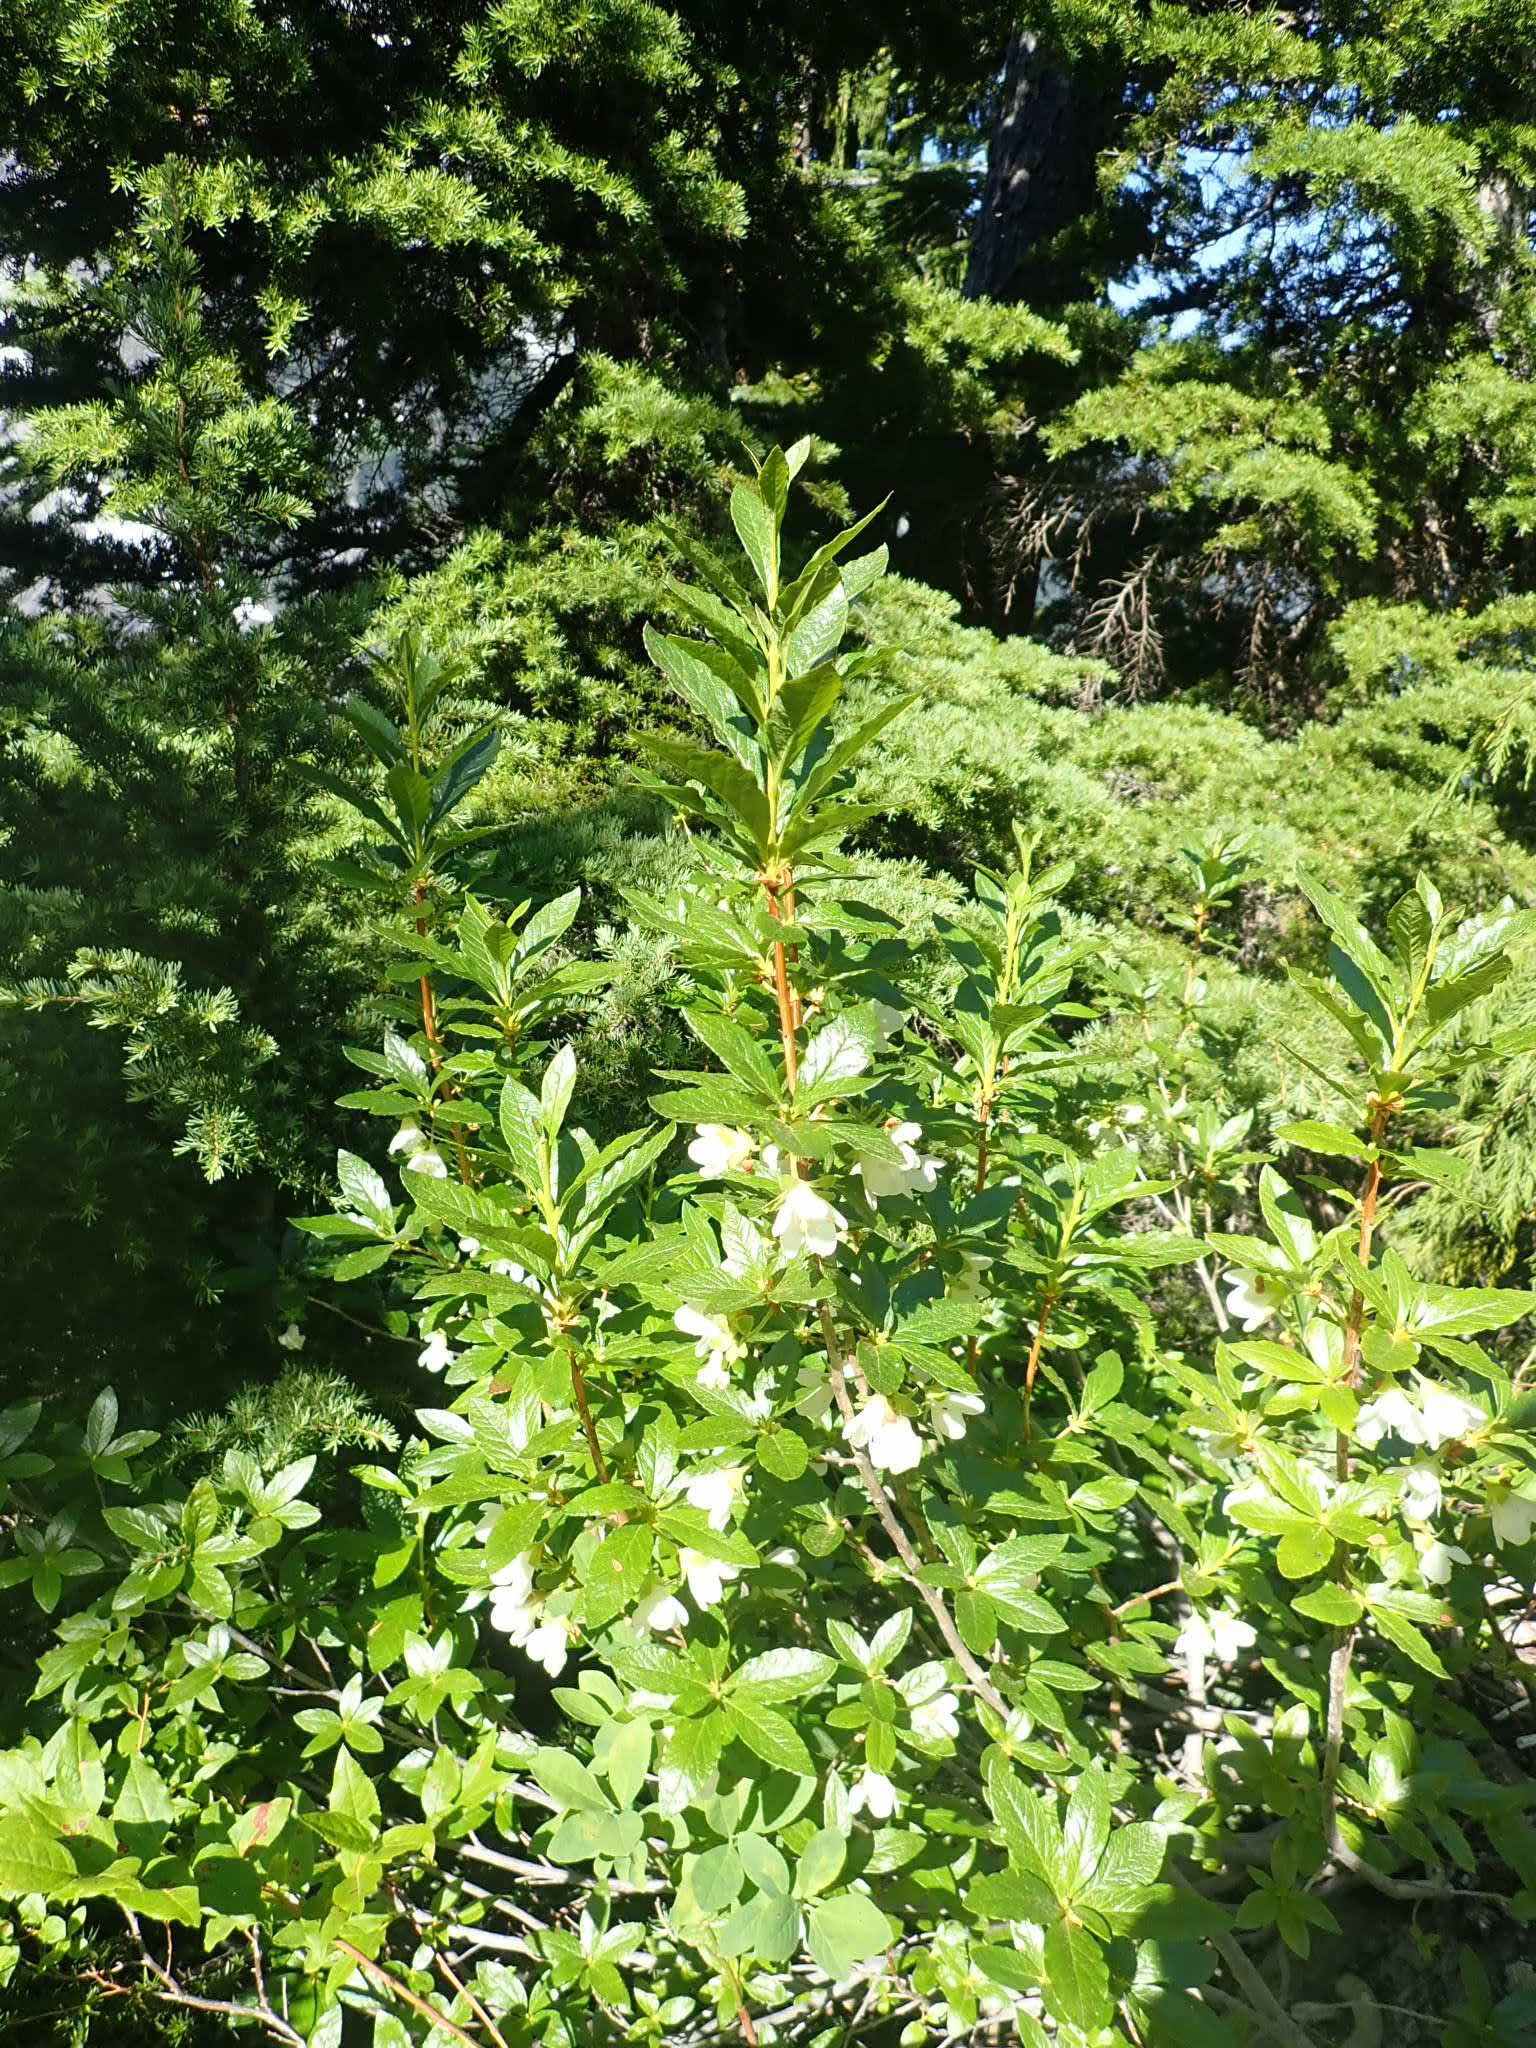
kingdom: Plantae
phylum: Tracheophyta
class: Magnoliopsida
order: Ericales
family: Ericaceae
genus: Rhododendron
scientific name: Rhododendron albiflorum
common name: White rhododendron
